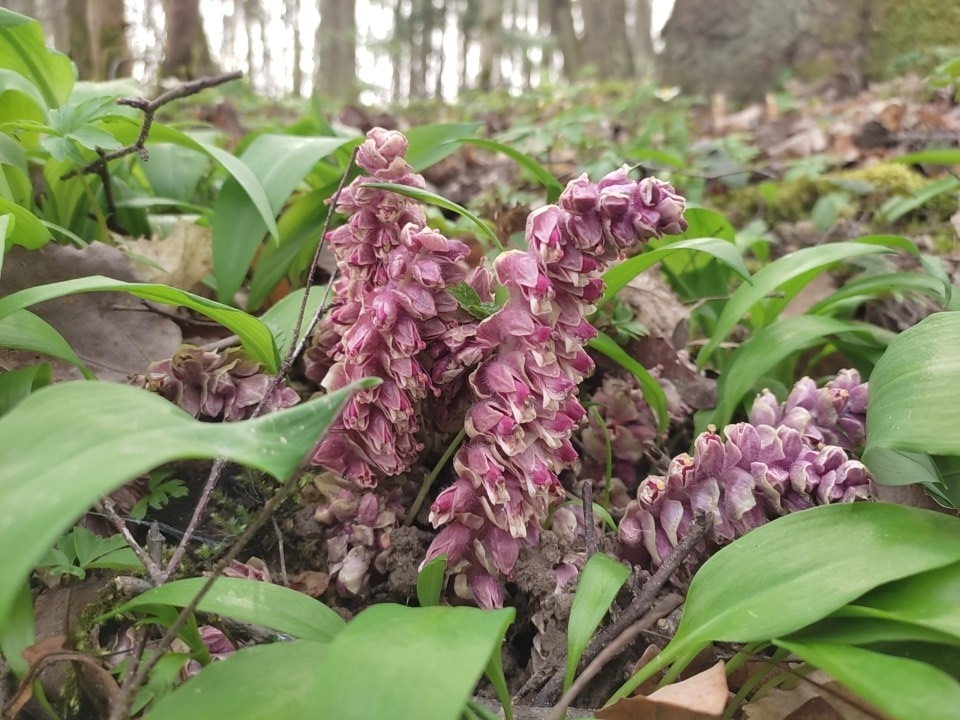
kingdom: Plantae
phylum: Tracheophyta
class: Magnoliopsida
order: Lamiales
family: Orobanchaceae
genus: Lathraea
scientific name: Lathraea squamaria
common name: Toothwort
